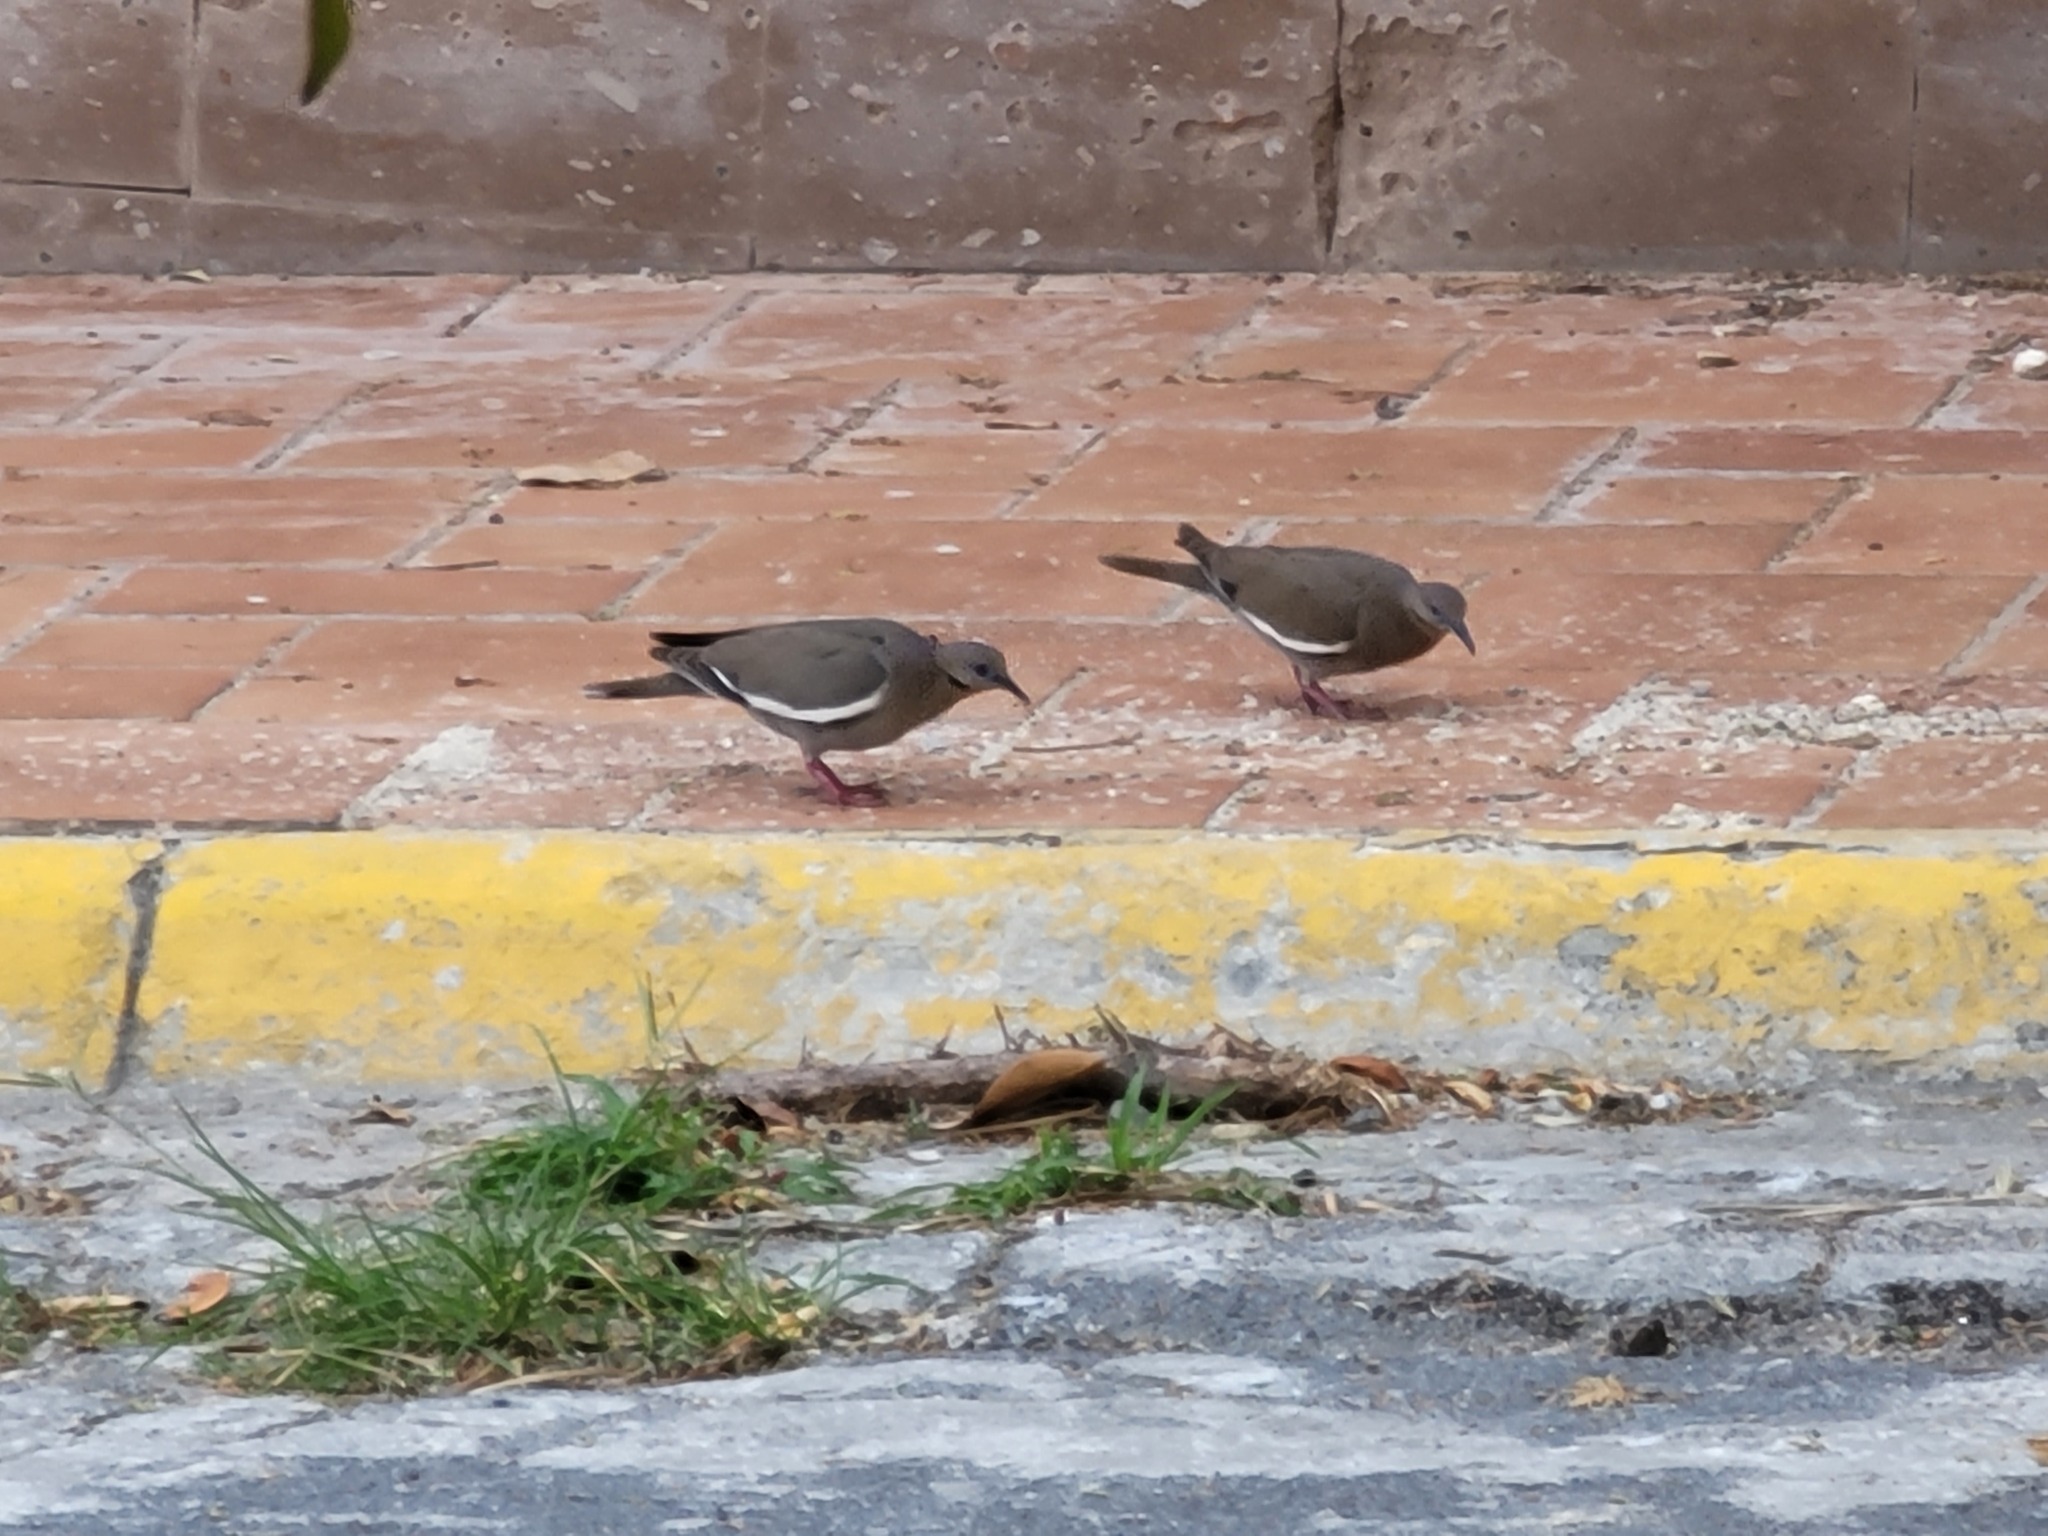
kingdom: Animalia
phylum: Chordata
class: Aves
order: Columbiformes
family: Columbidae
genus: Zenaida
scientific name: Zenaida asiatica
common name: White-winged dove
